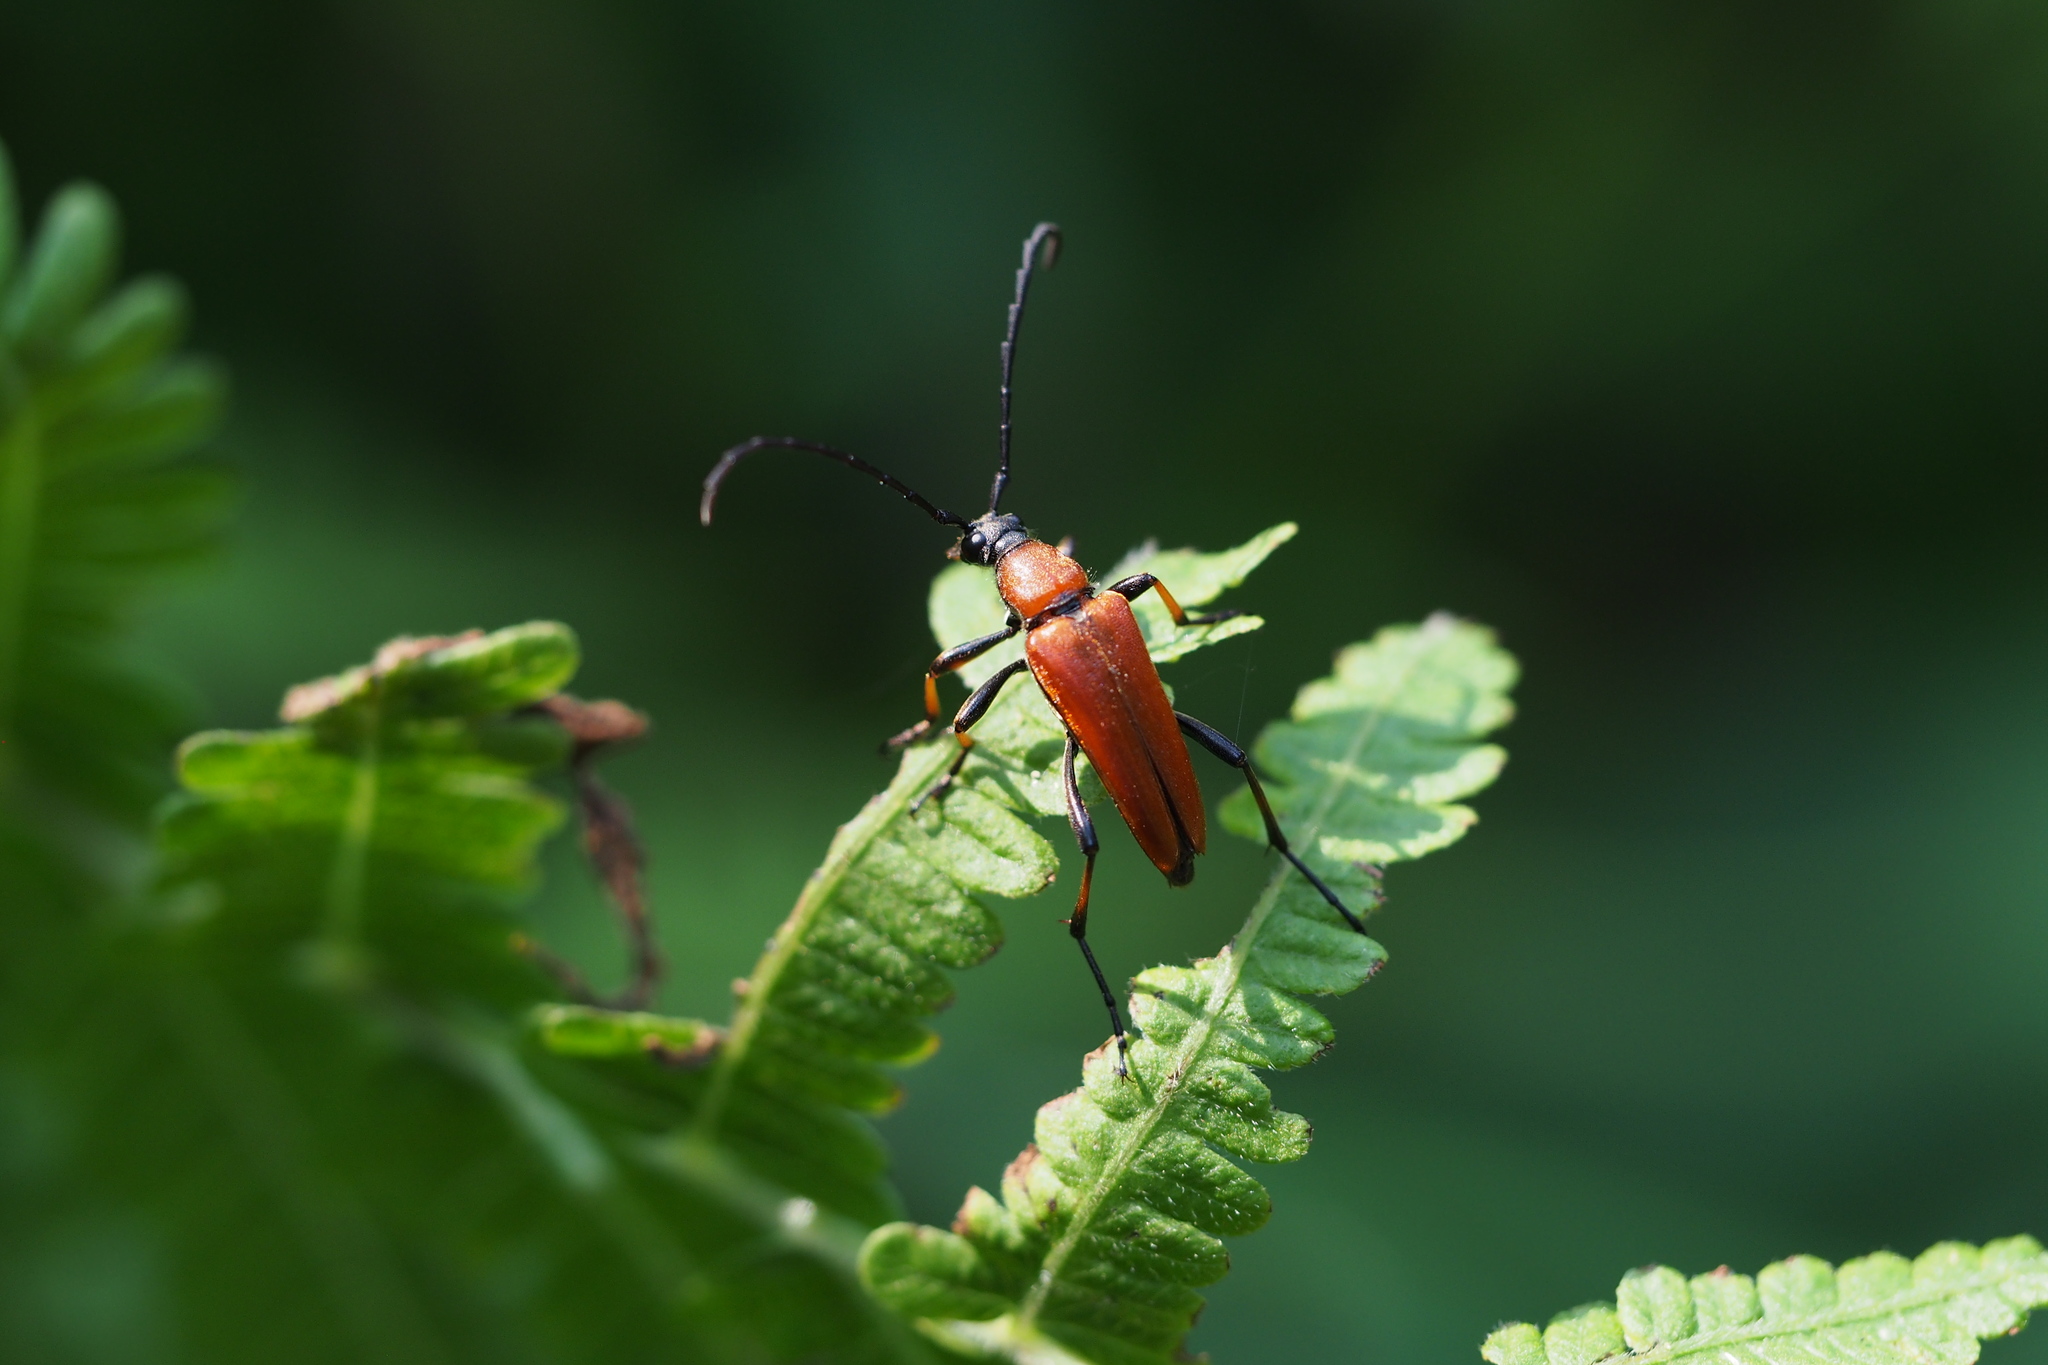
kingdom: Animalia
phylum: Arthropoda
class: Insecta
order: Coleoptera
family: Cerambycidae
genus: Stictoleptura
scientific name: Stictoleptura dichroa
